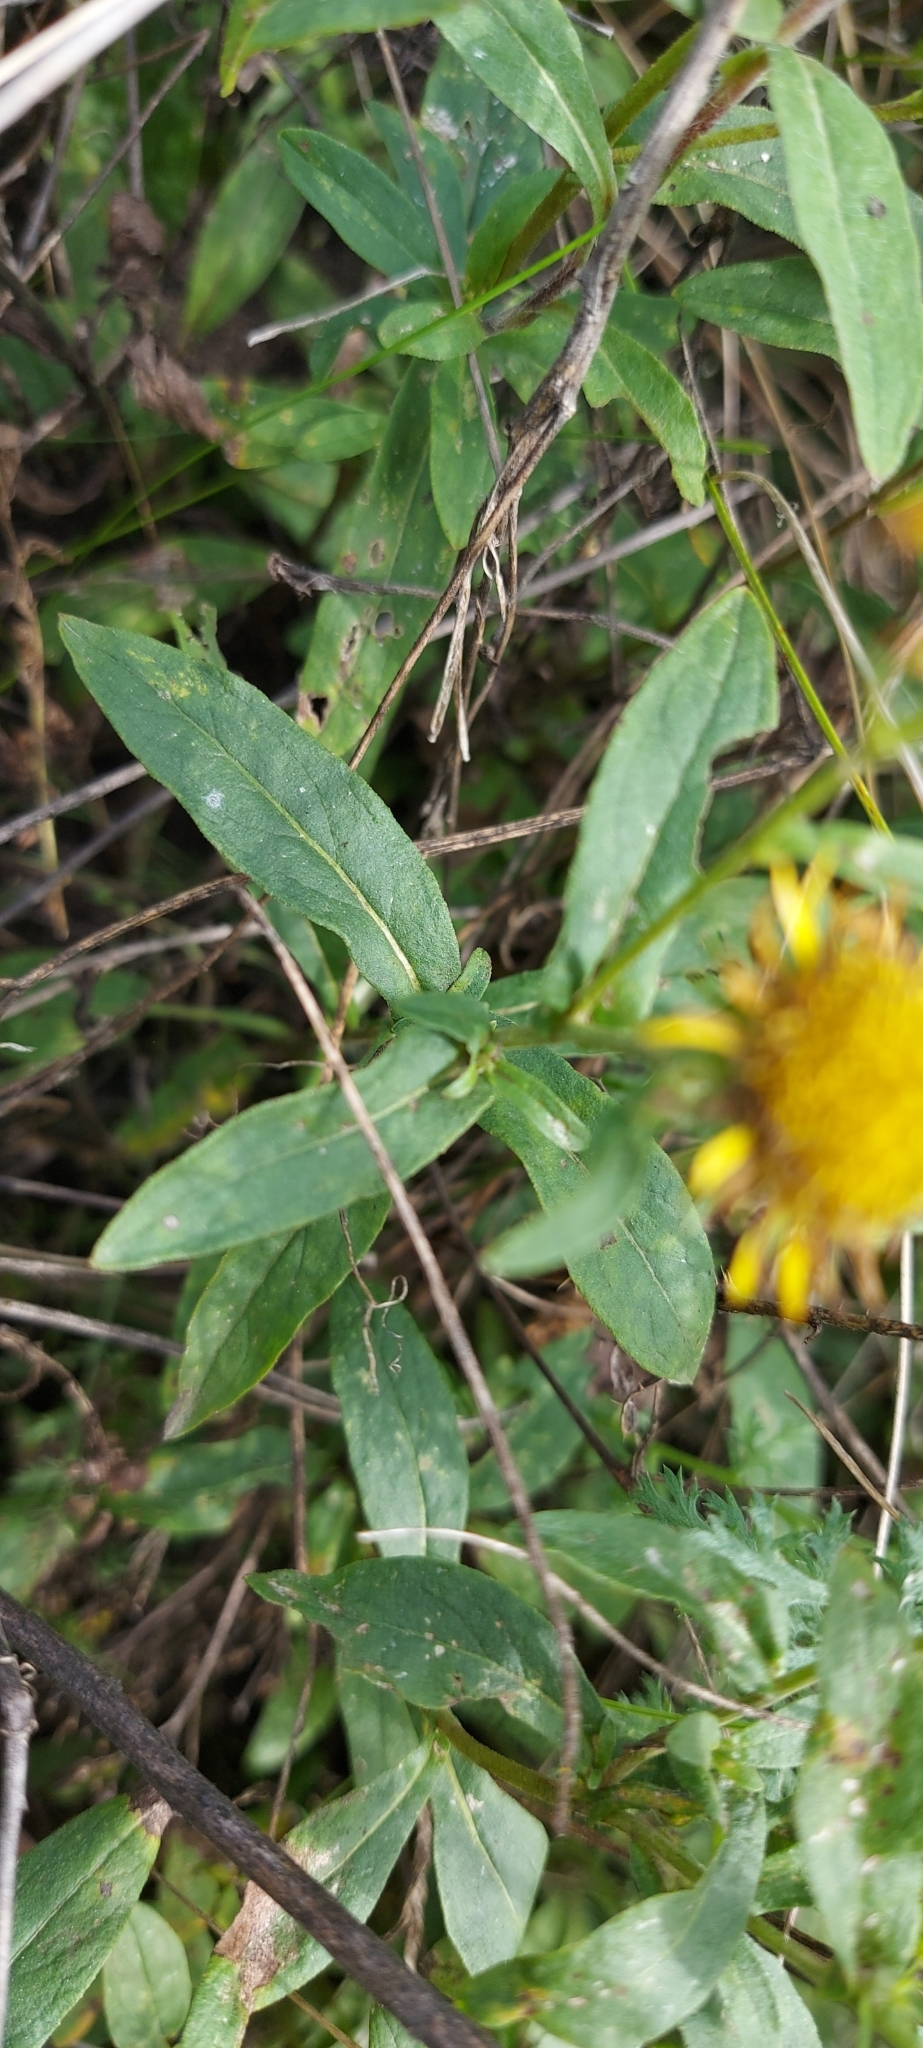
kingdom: Plantae
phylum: Tracheophyta
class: Magnoliopsida
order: Asterales
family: Asteraceae
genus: Pentanema
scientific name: Pentanema britannicum
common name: British elecampane
